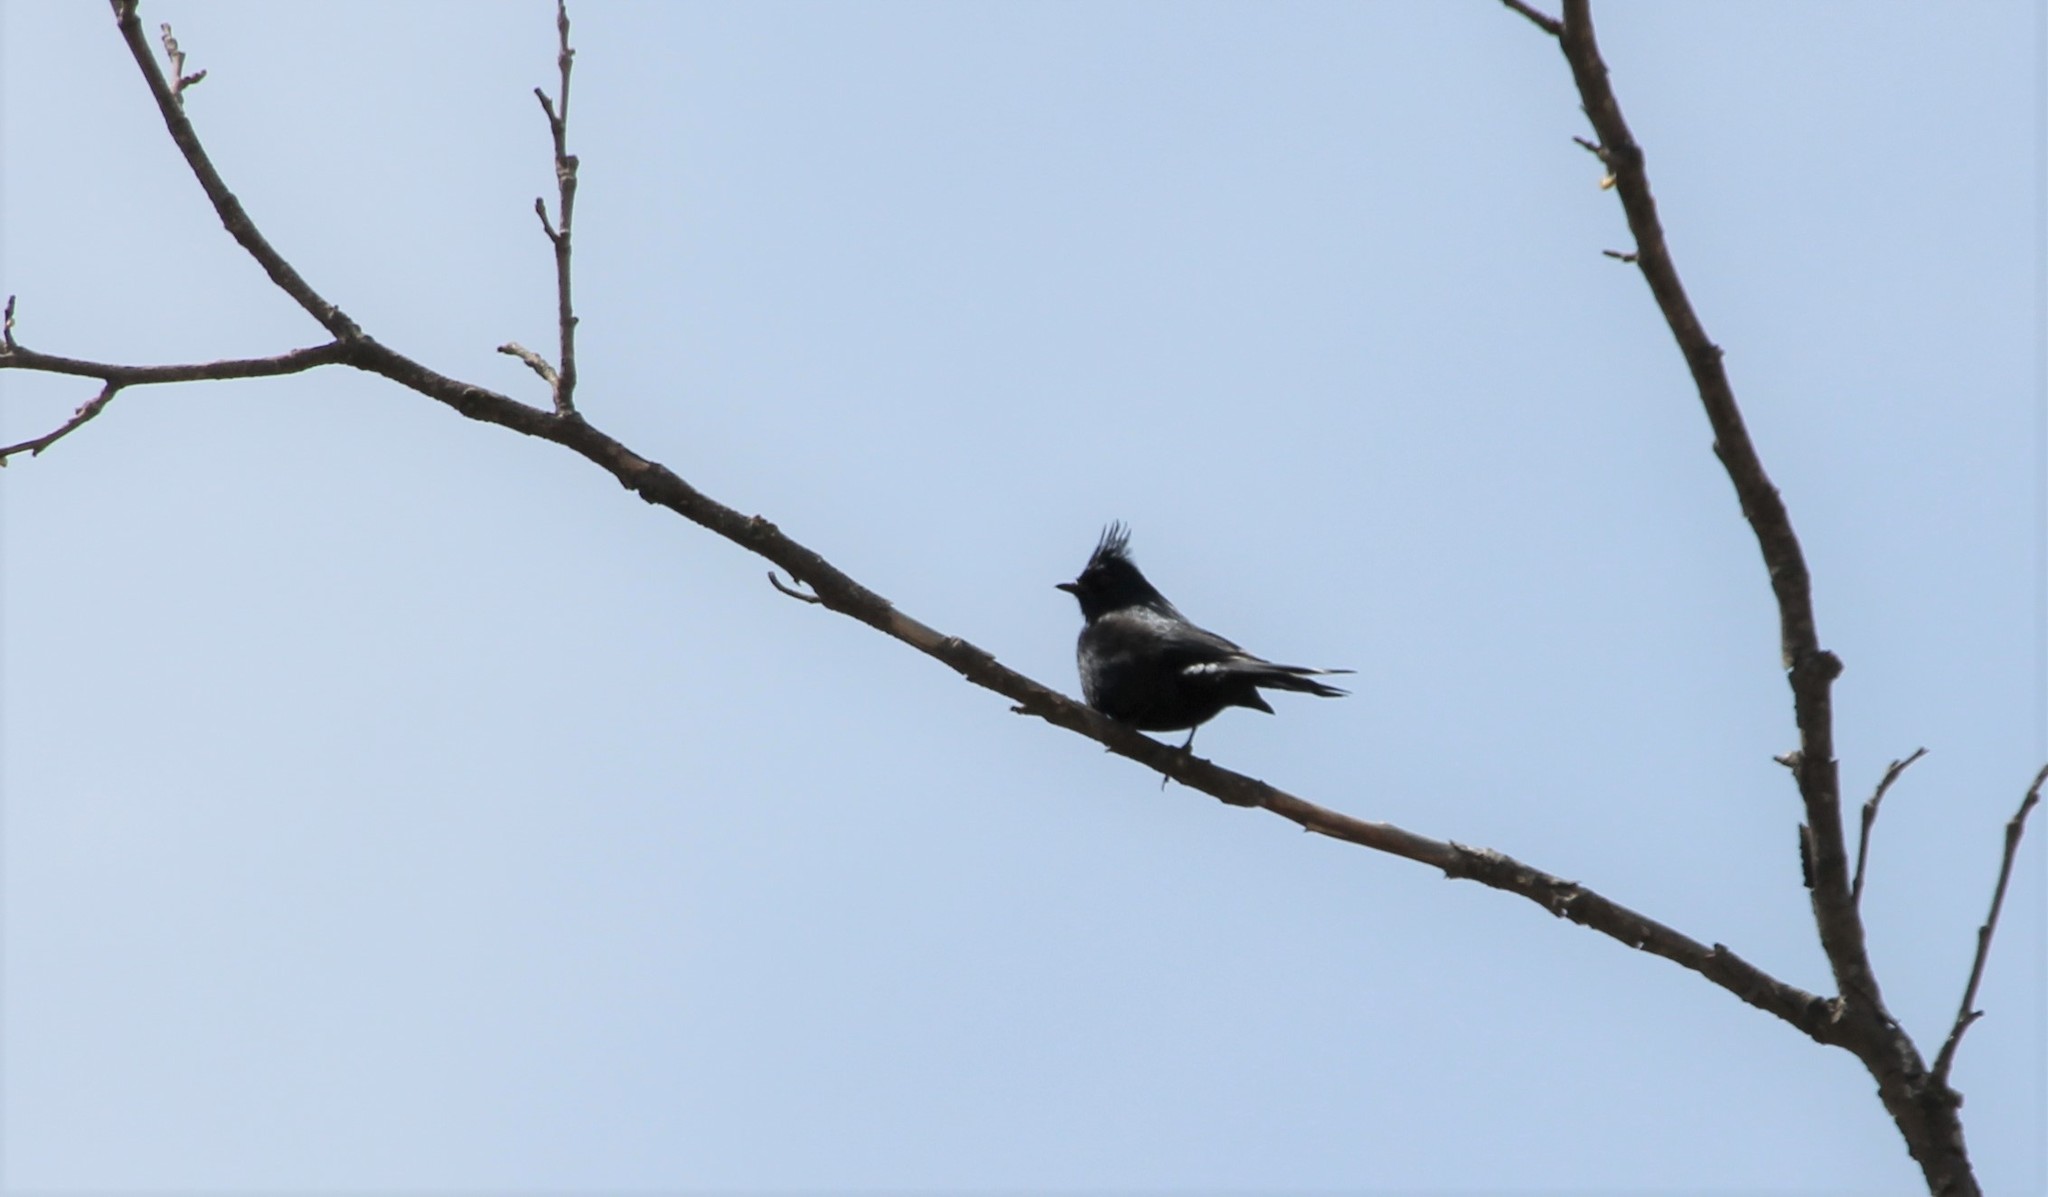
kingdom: Animalia
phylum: Chordata
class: Aves
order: Passeriformes
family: Ptilogonatidae
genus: Phainopepla
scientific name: Phainopepla nitens
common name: Phainopepla
